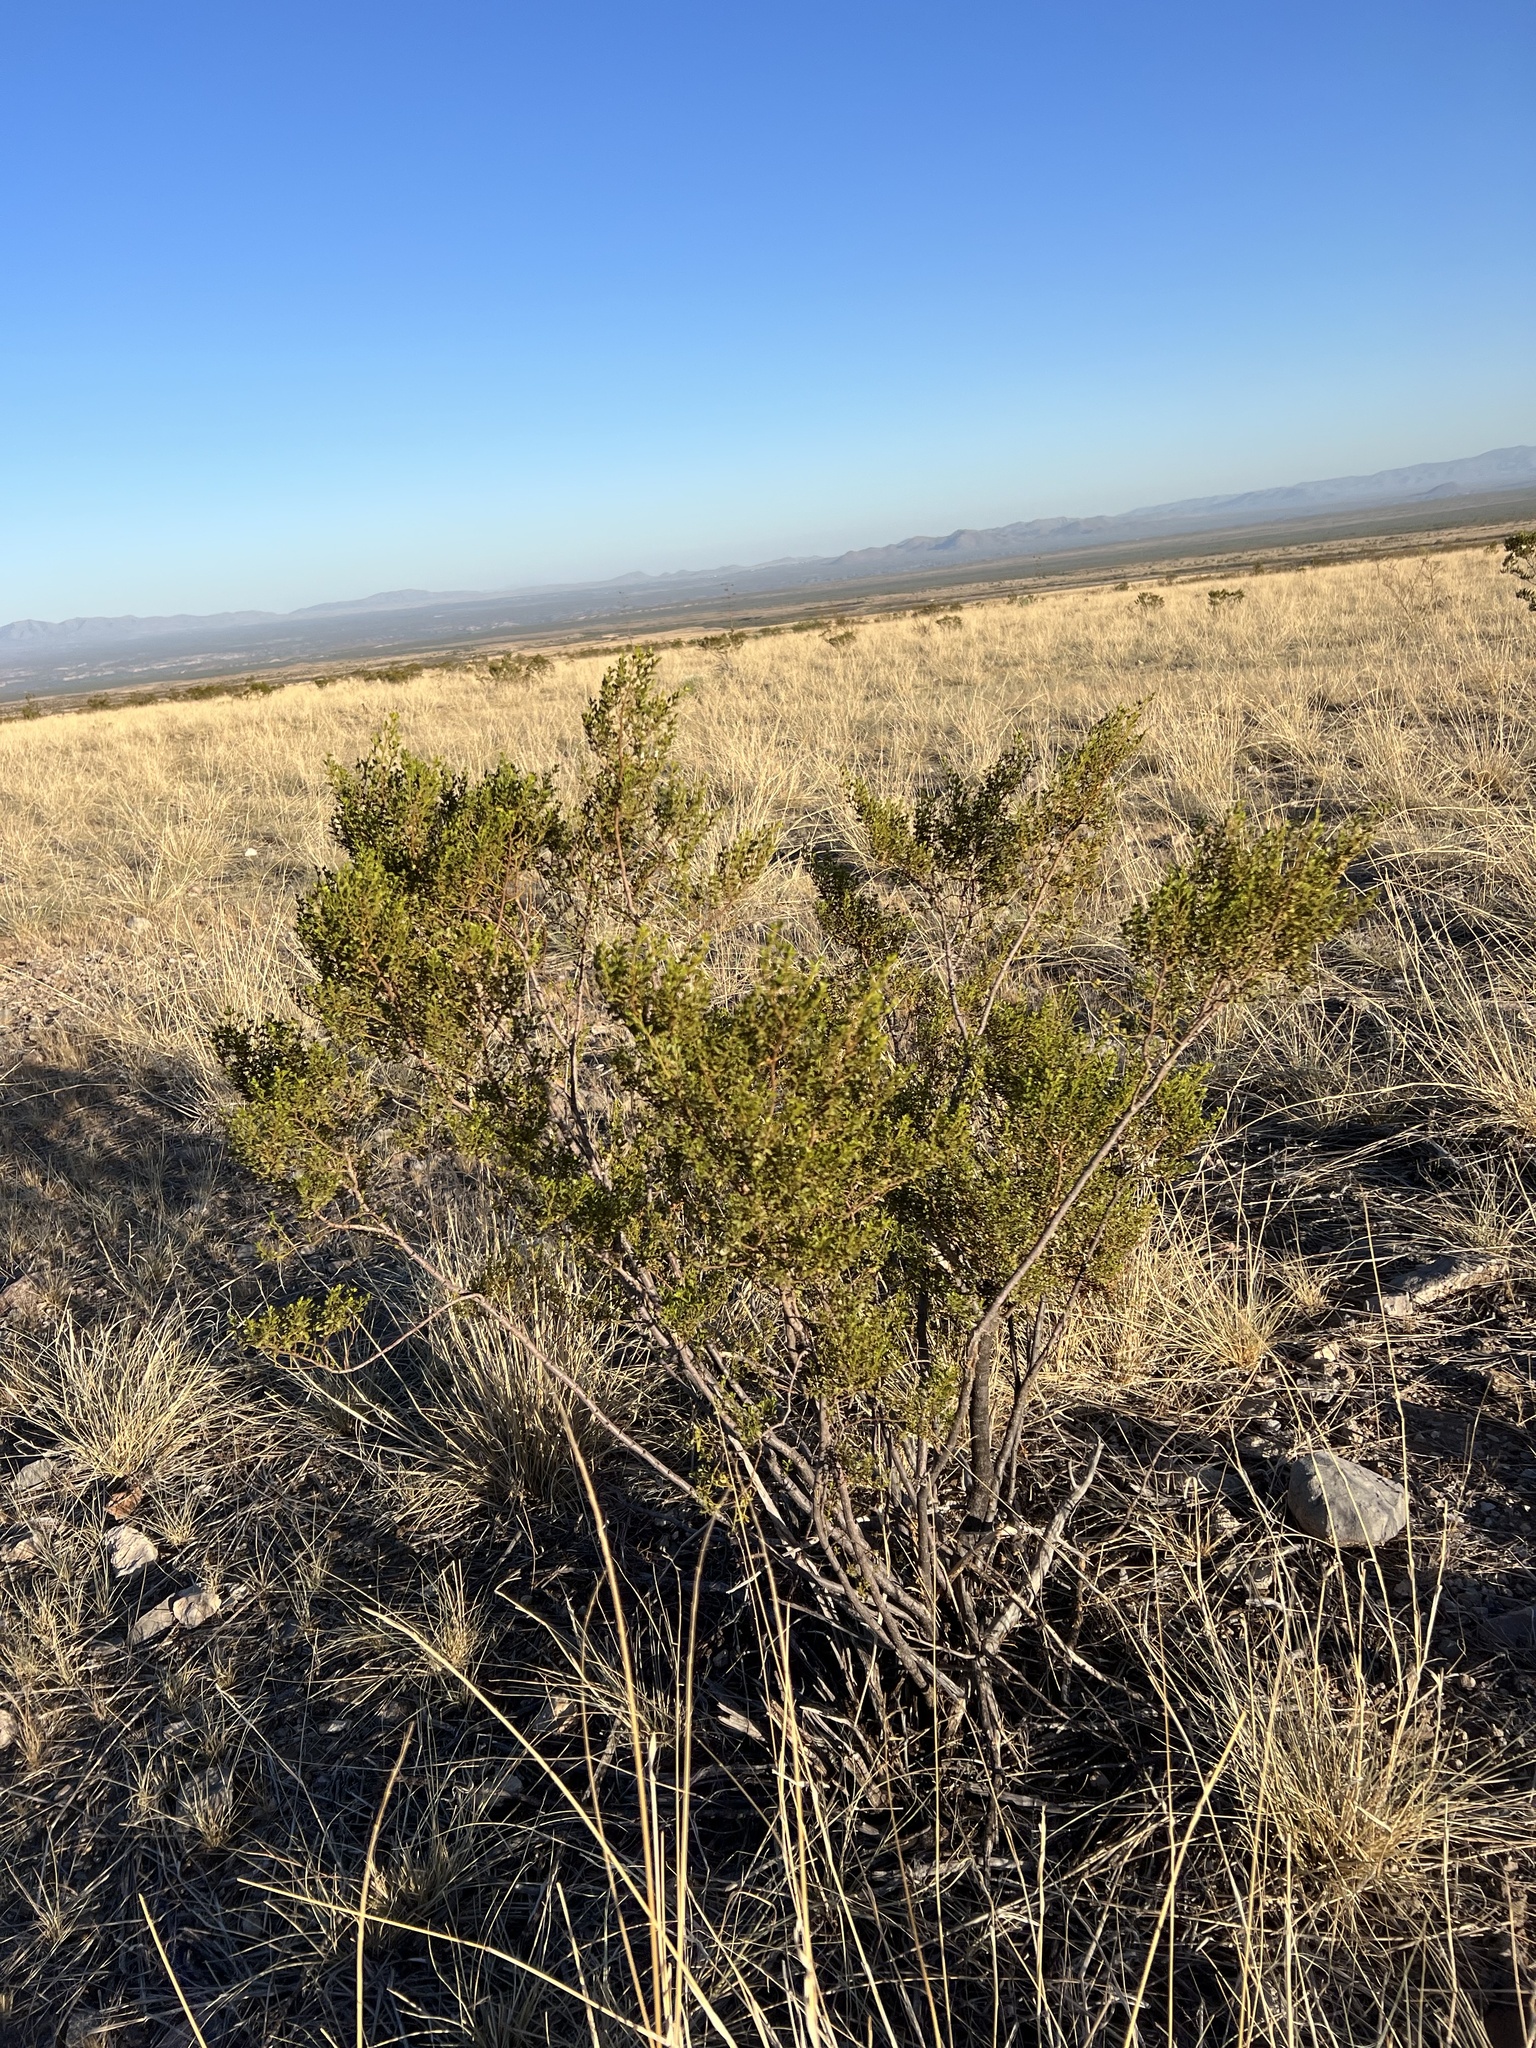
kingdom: Plantae
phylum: Tracheophyta
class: Magnoliopsida
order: Zygophyllales
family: Zygophyllaceae
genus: Larrea
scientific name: Larrea tridentata
